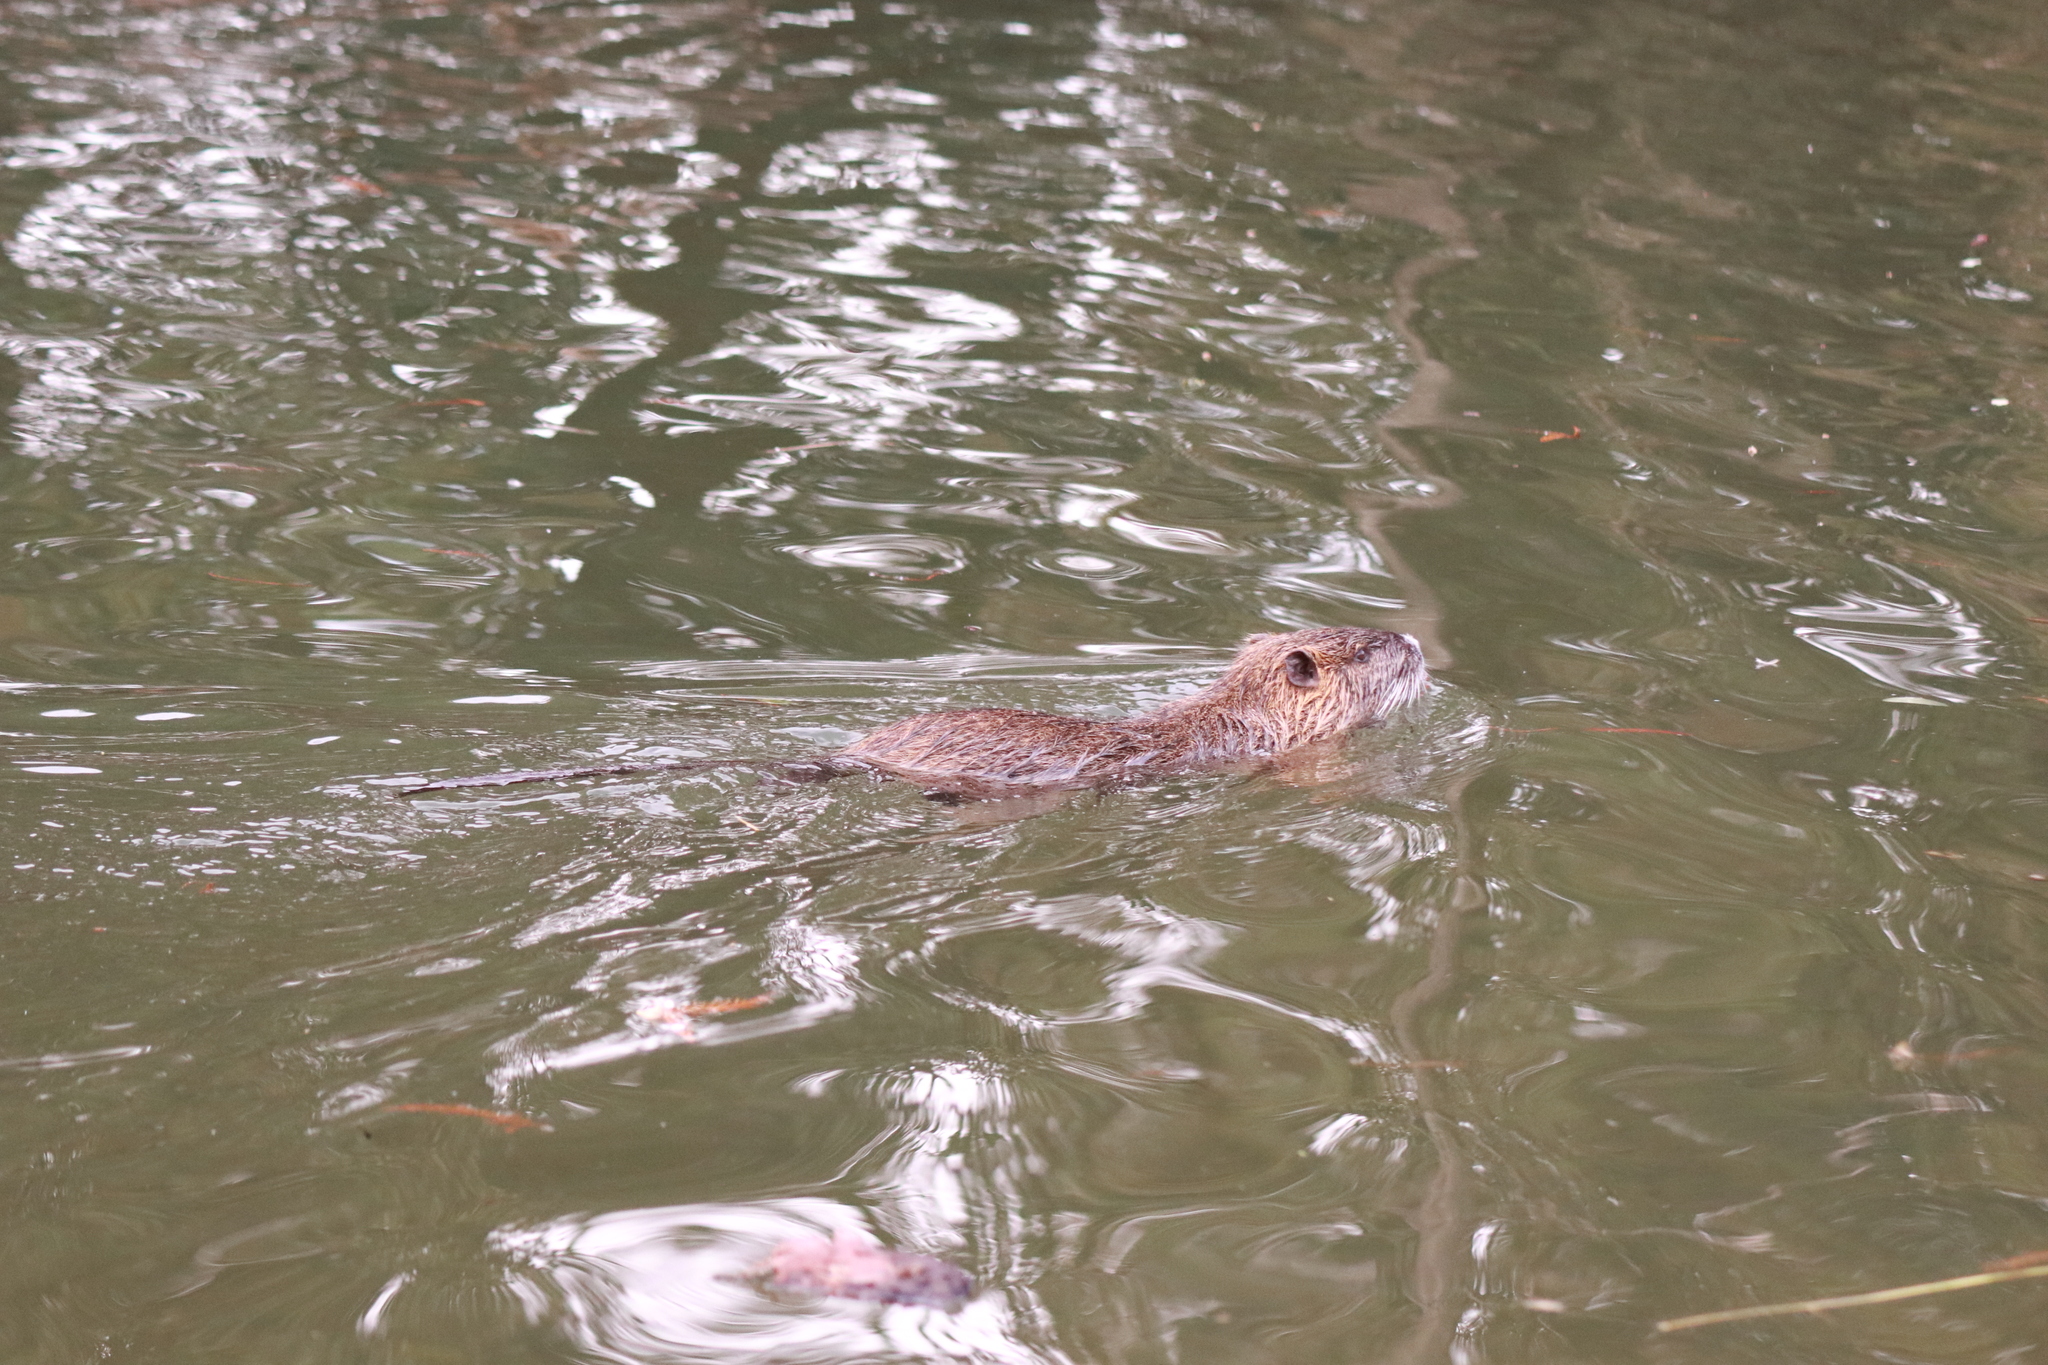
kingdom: Animalia
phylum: Chordata
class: Mammalia
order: Rodentia
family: Myocastoridae
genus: Myocastor
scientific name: Myocastor coypus
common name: Coypu
